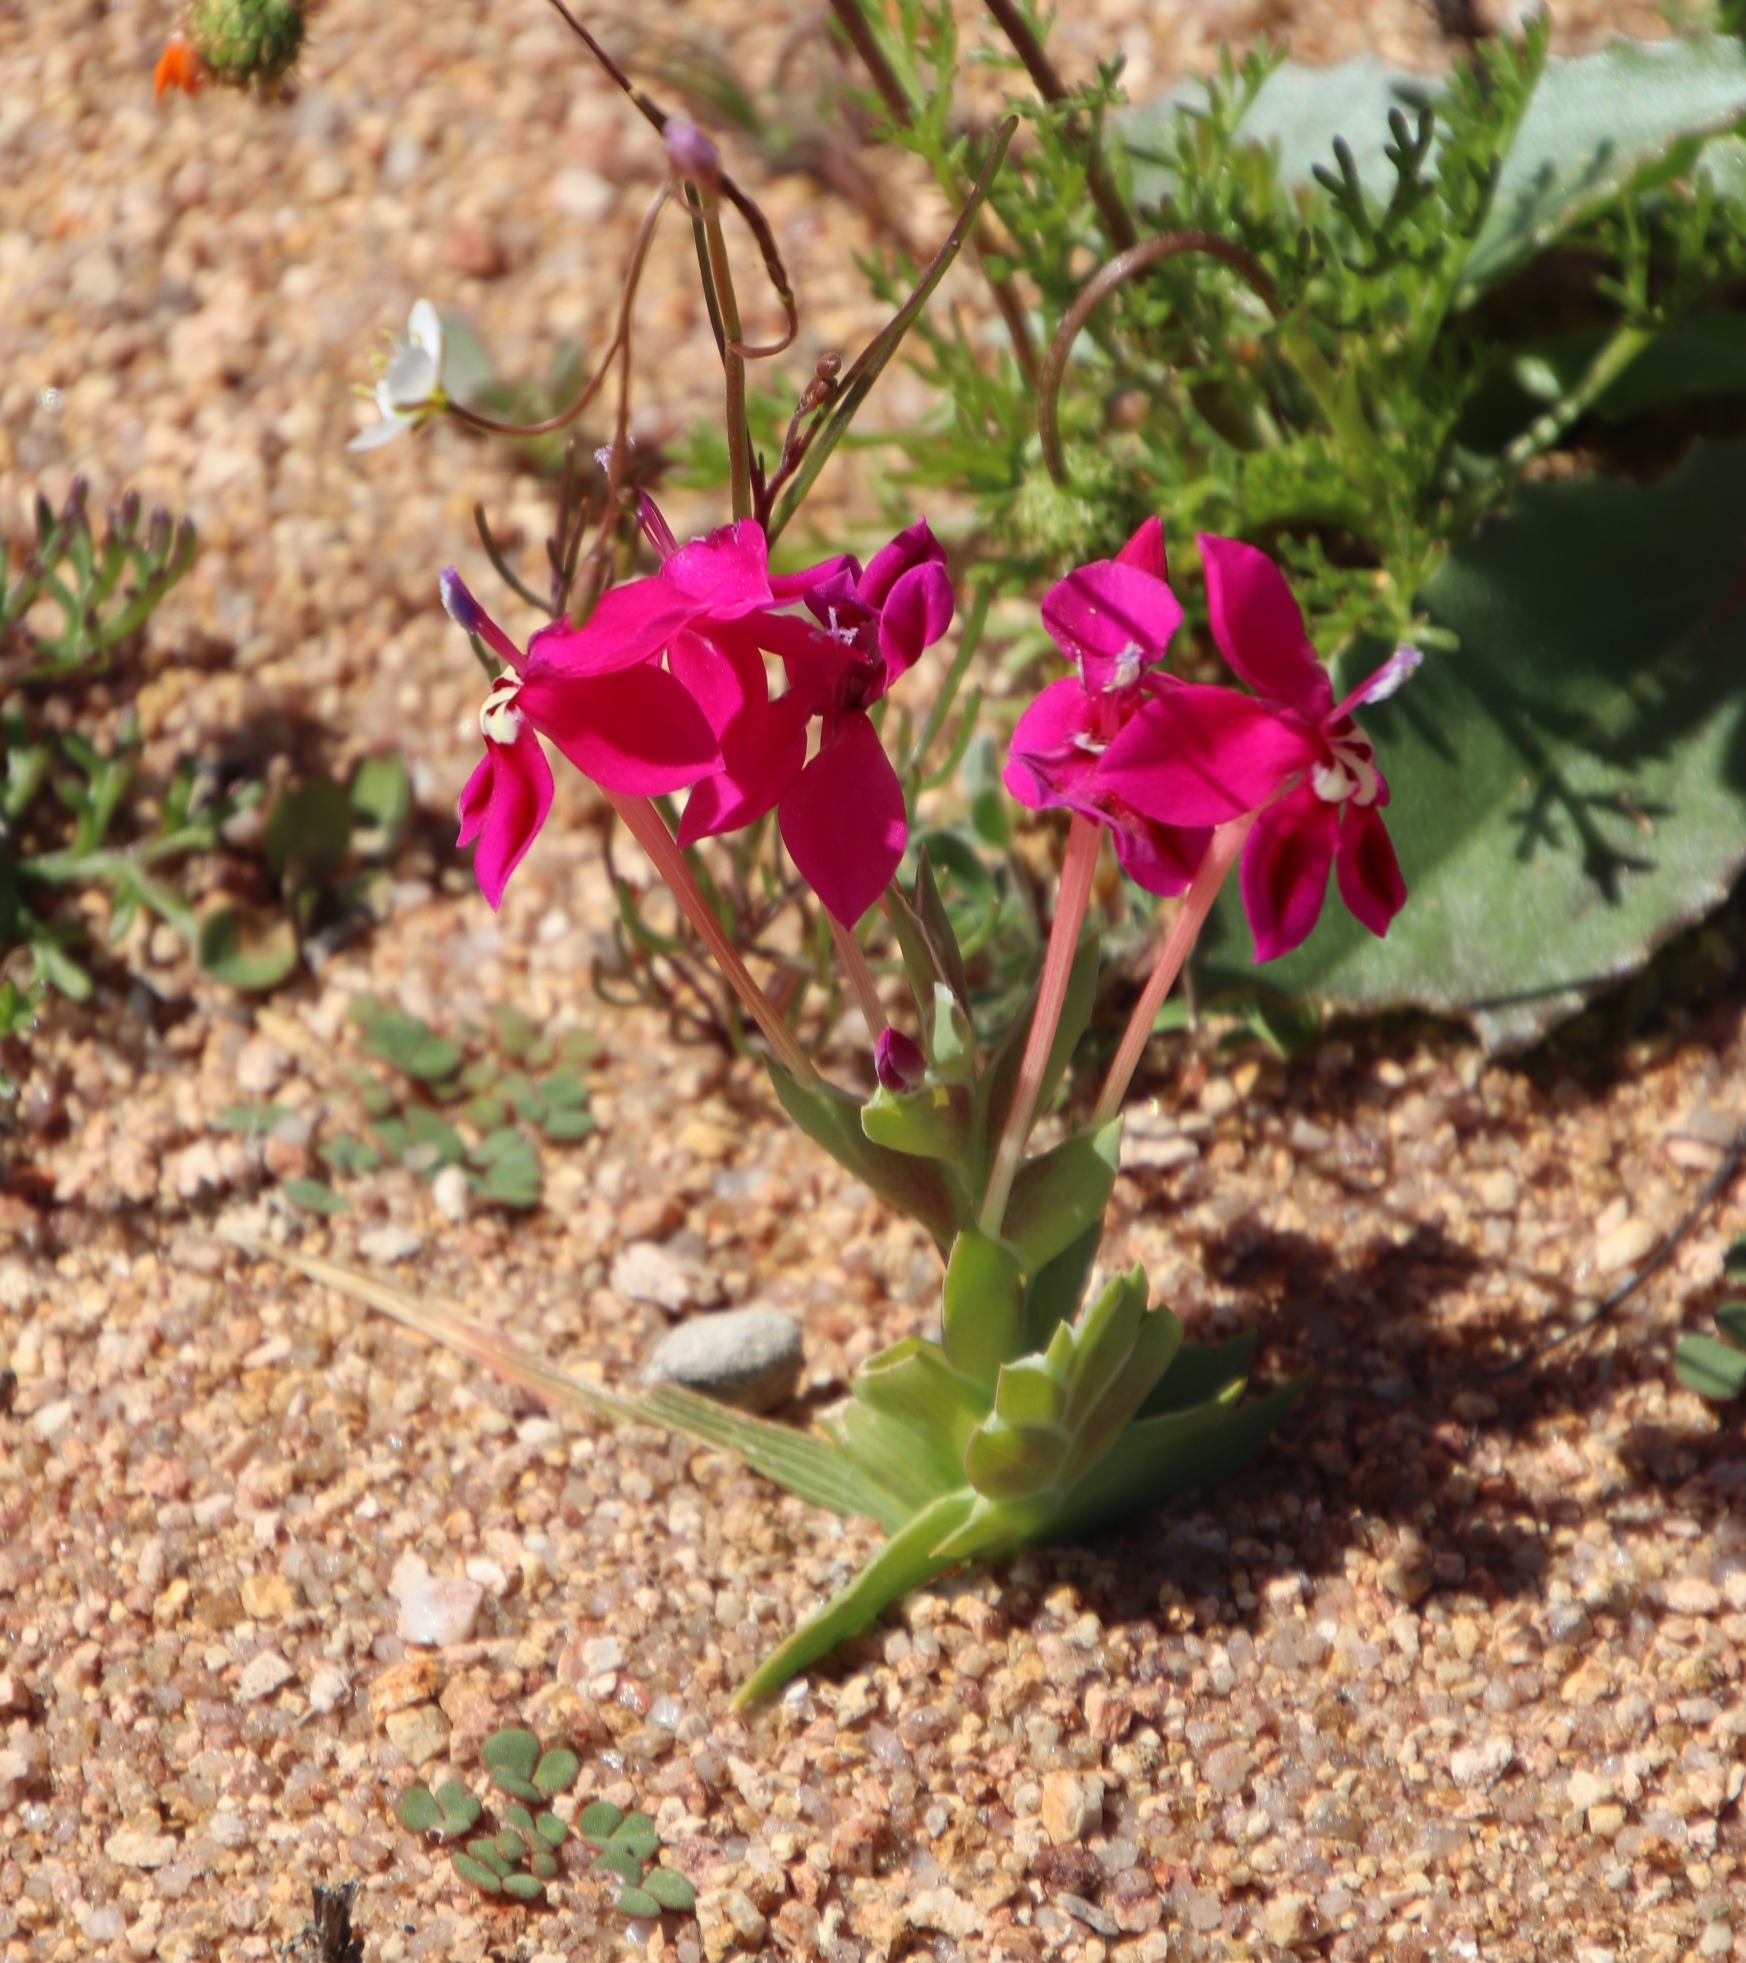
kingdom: Plantae
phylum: Tracheophyta
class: Liliopsida
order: Asparagales
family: Iridaceae
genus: Lapeirousia
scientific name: Lapeirousia silenoides
